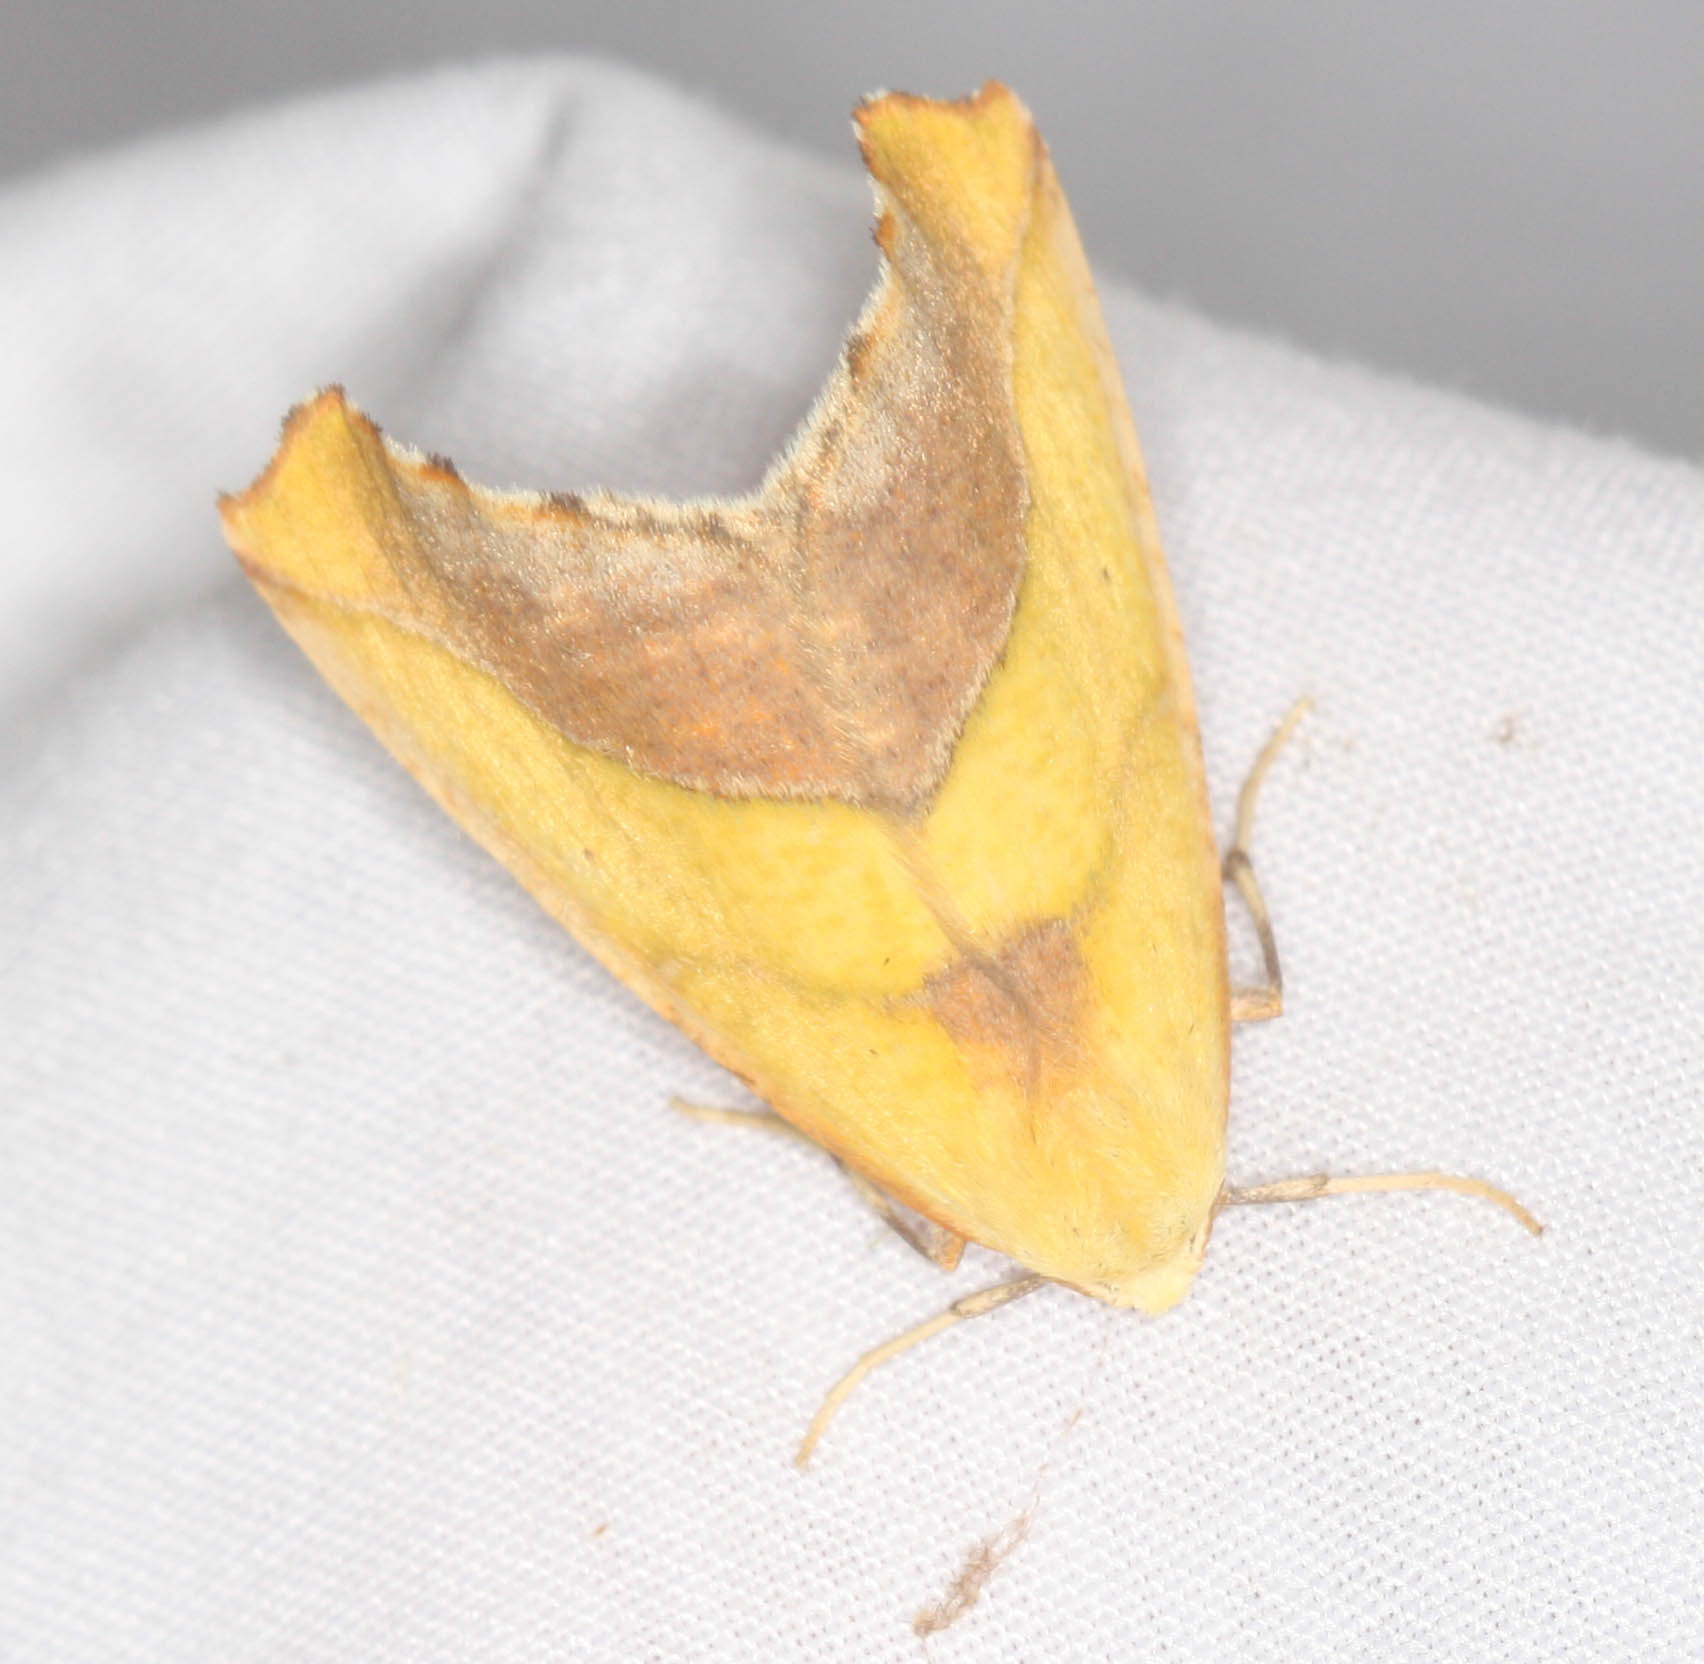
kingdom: Animalia
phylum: Arthropoda
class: Insecta
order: Lepidoptera
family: Geometridae
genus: Sicya
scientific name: Sicya crocearia
